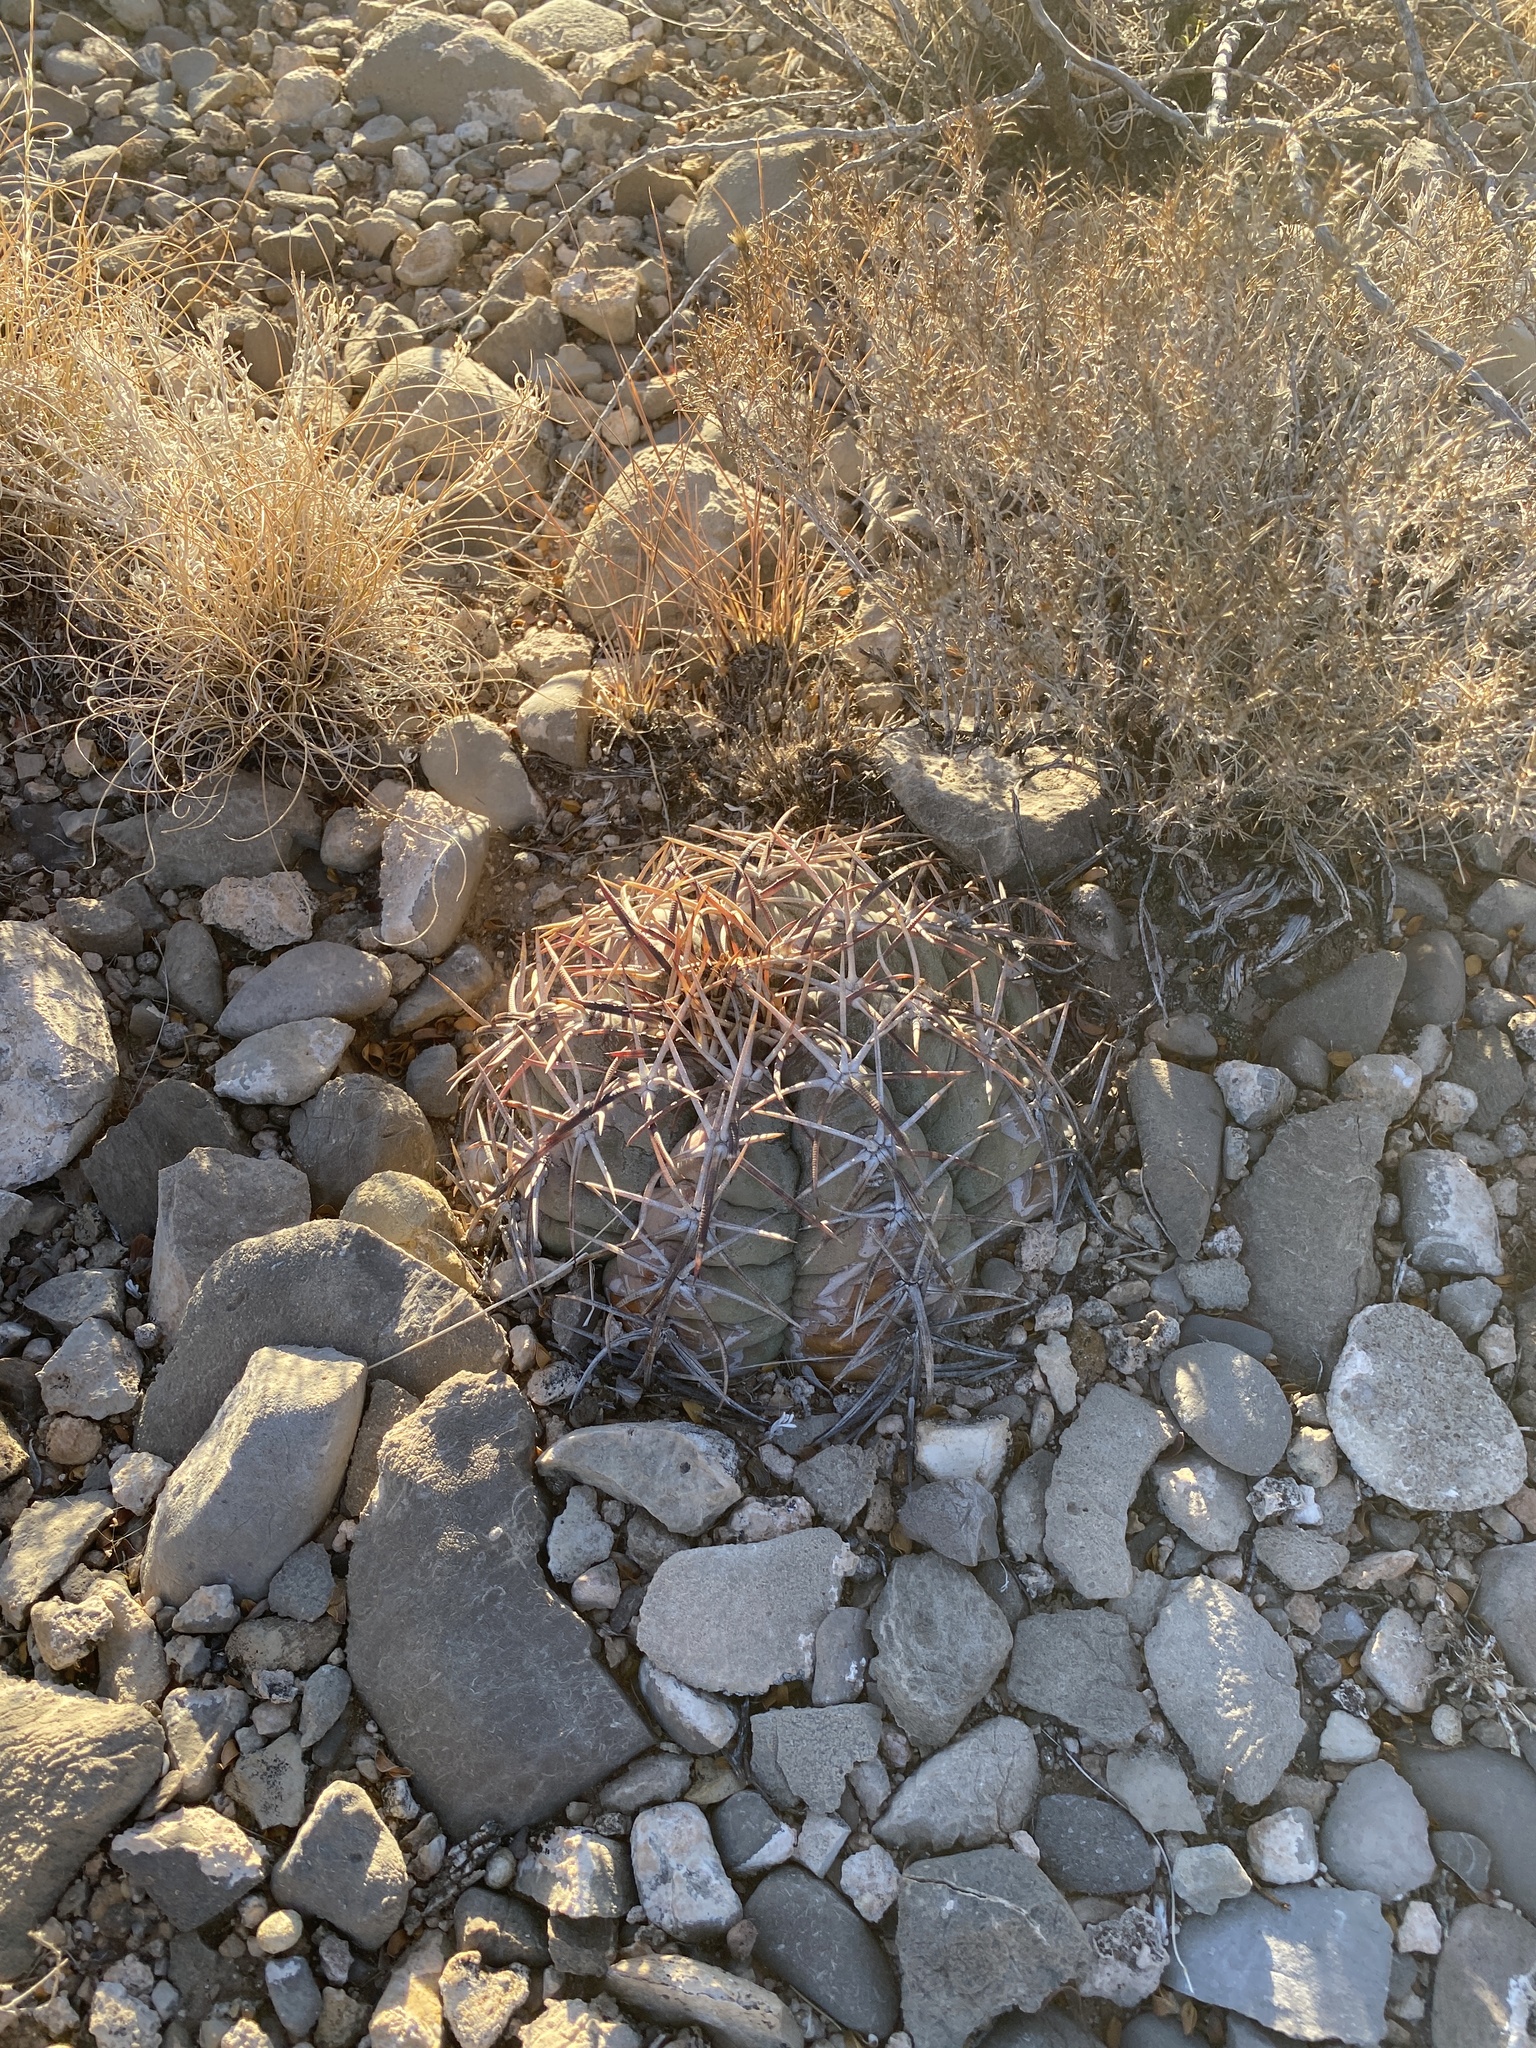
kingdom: Plantae
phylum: Tracheophyta
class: Magnoliopsida
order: Caryophyllales
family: Cactaceae
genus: Echinocactus
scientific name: Echinocactus horizonthalonius
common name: Devilshead
